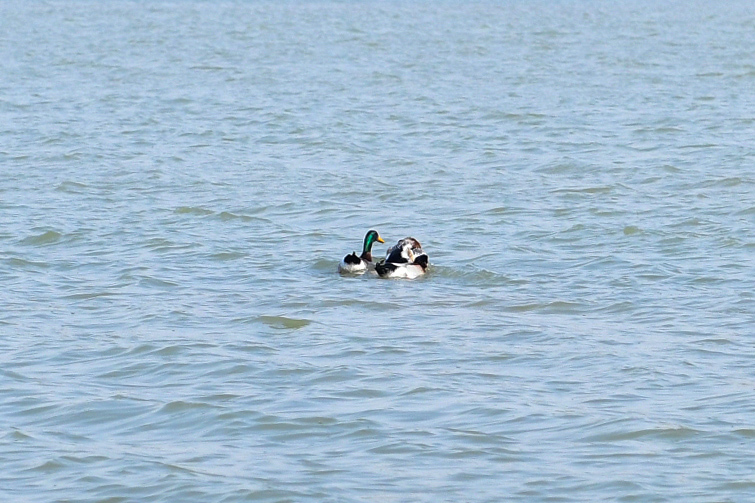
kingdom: Animalia
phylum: Chordata
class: Aves
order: Anseriformes
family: Anatidae
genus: Anas
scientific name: Anas platyrhynchos
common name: Mallard
